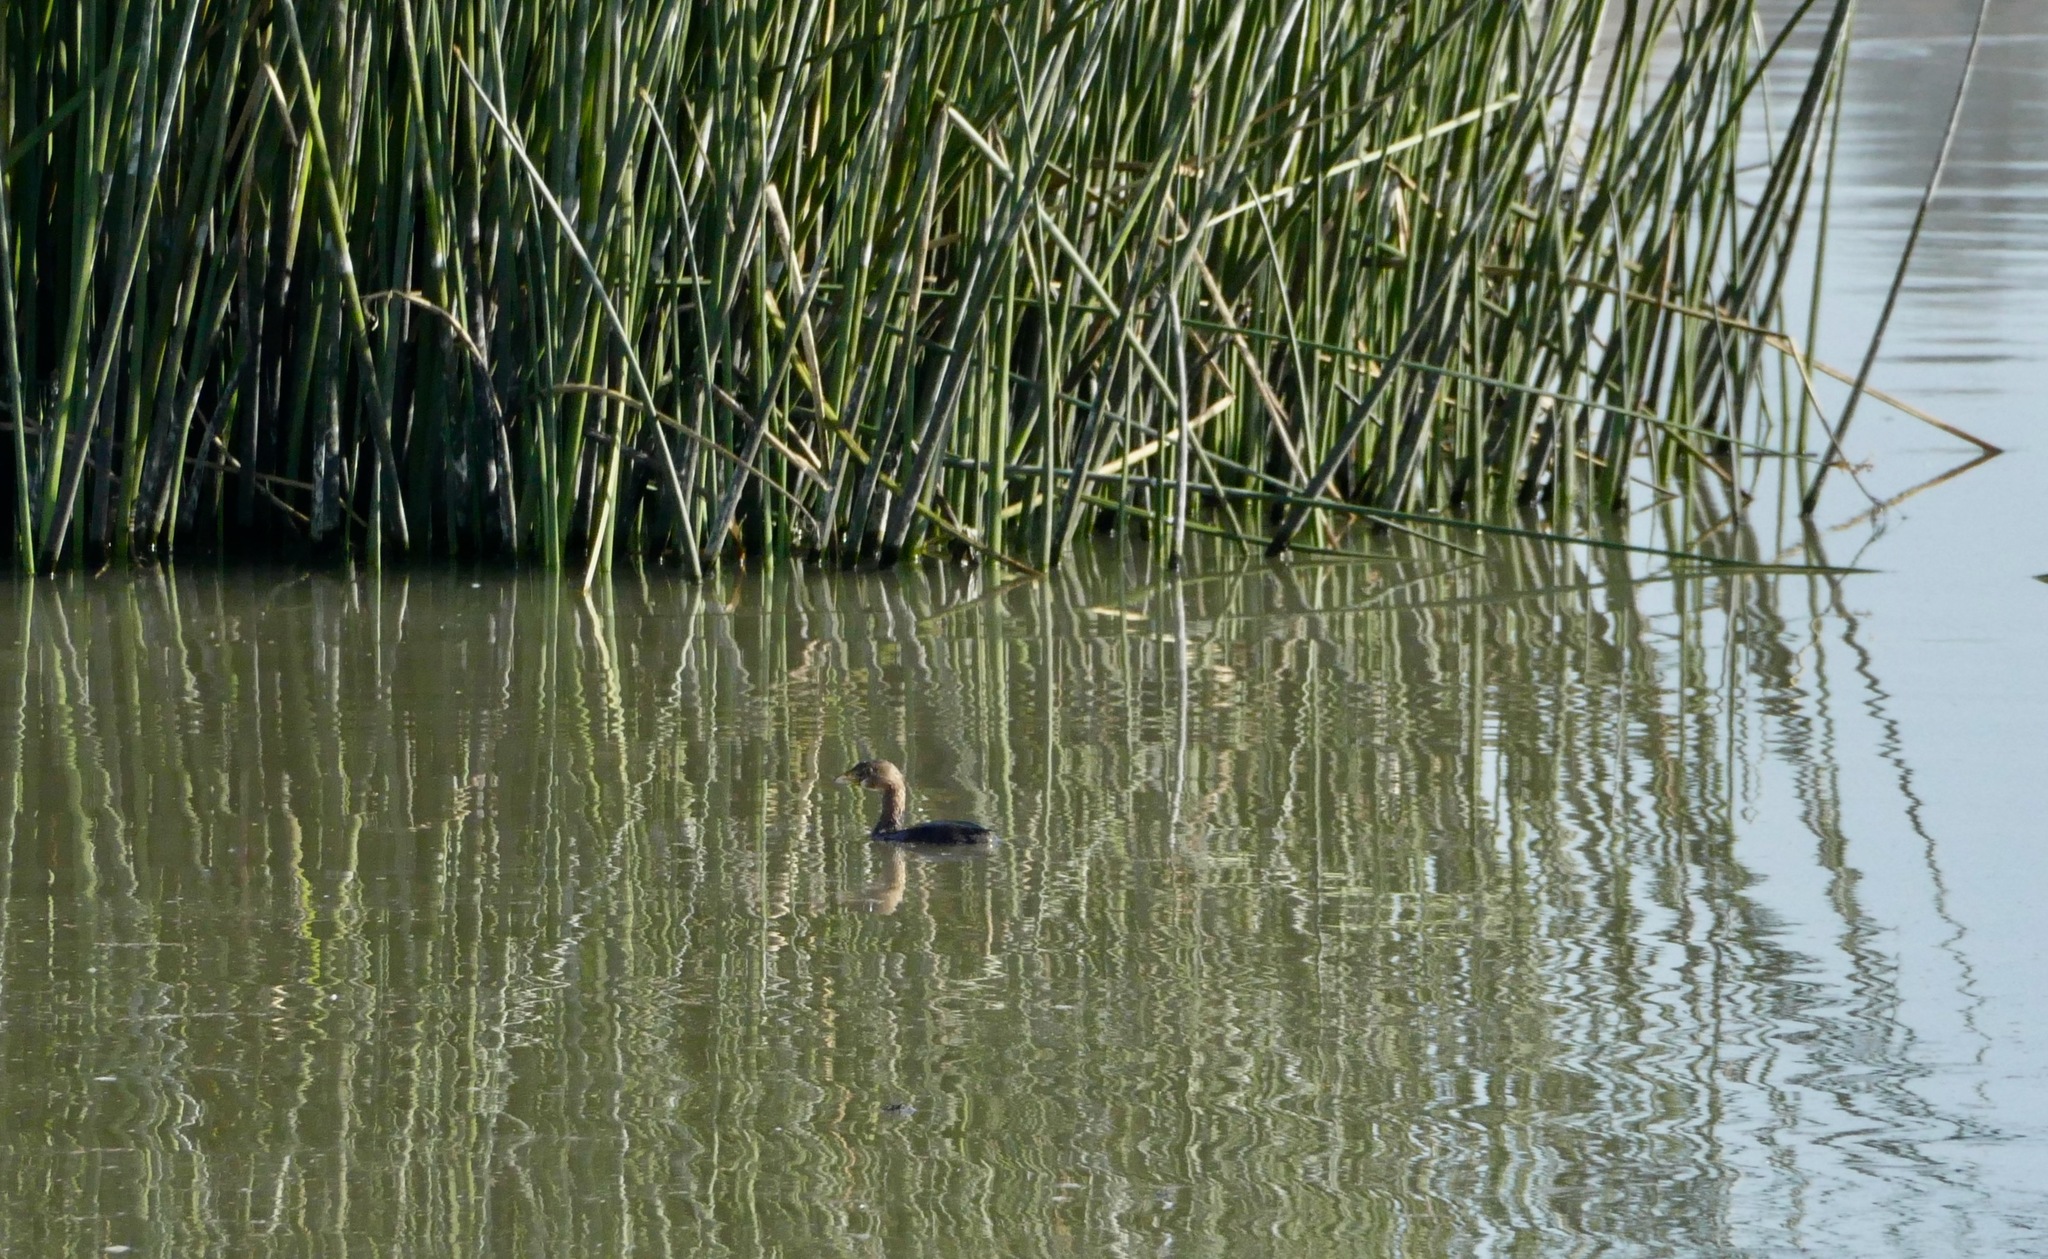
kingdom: Animalia
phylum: Chordata
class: Aves
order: Podicipediformes
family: Podicipedidae
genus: Podilymbus
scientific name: Podilymbus podiceps
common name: Pied-billed grebe
